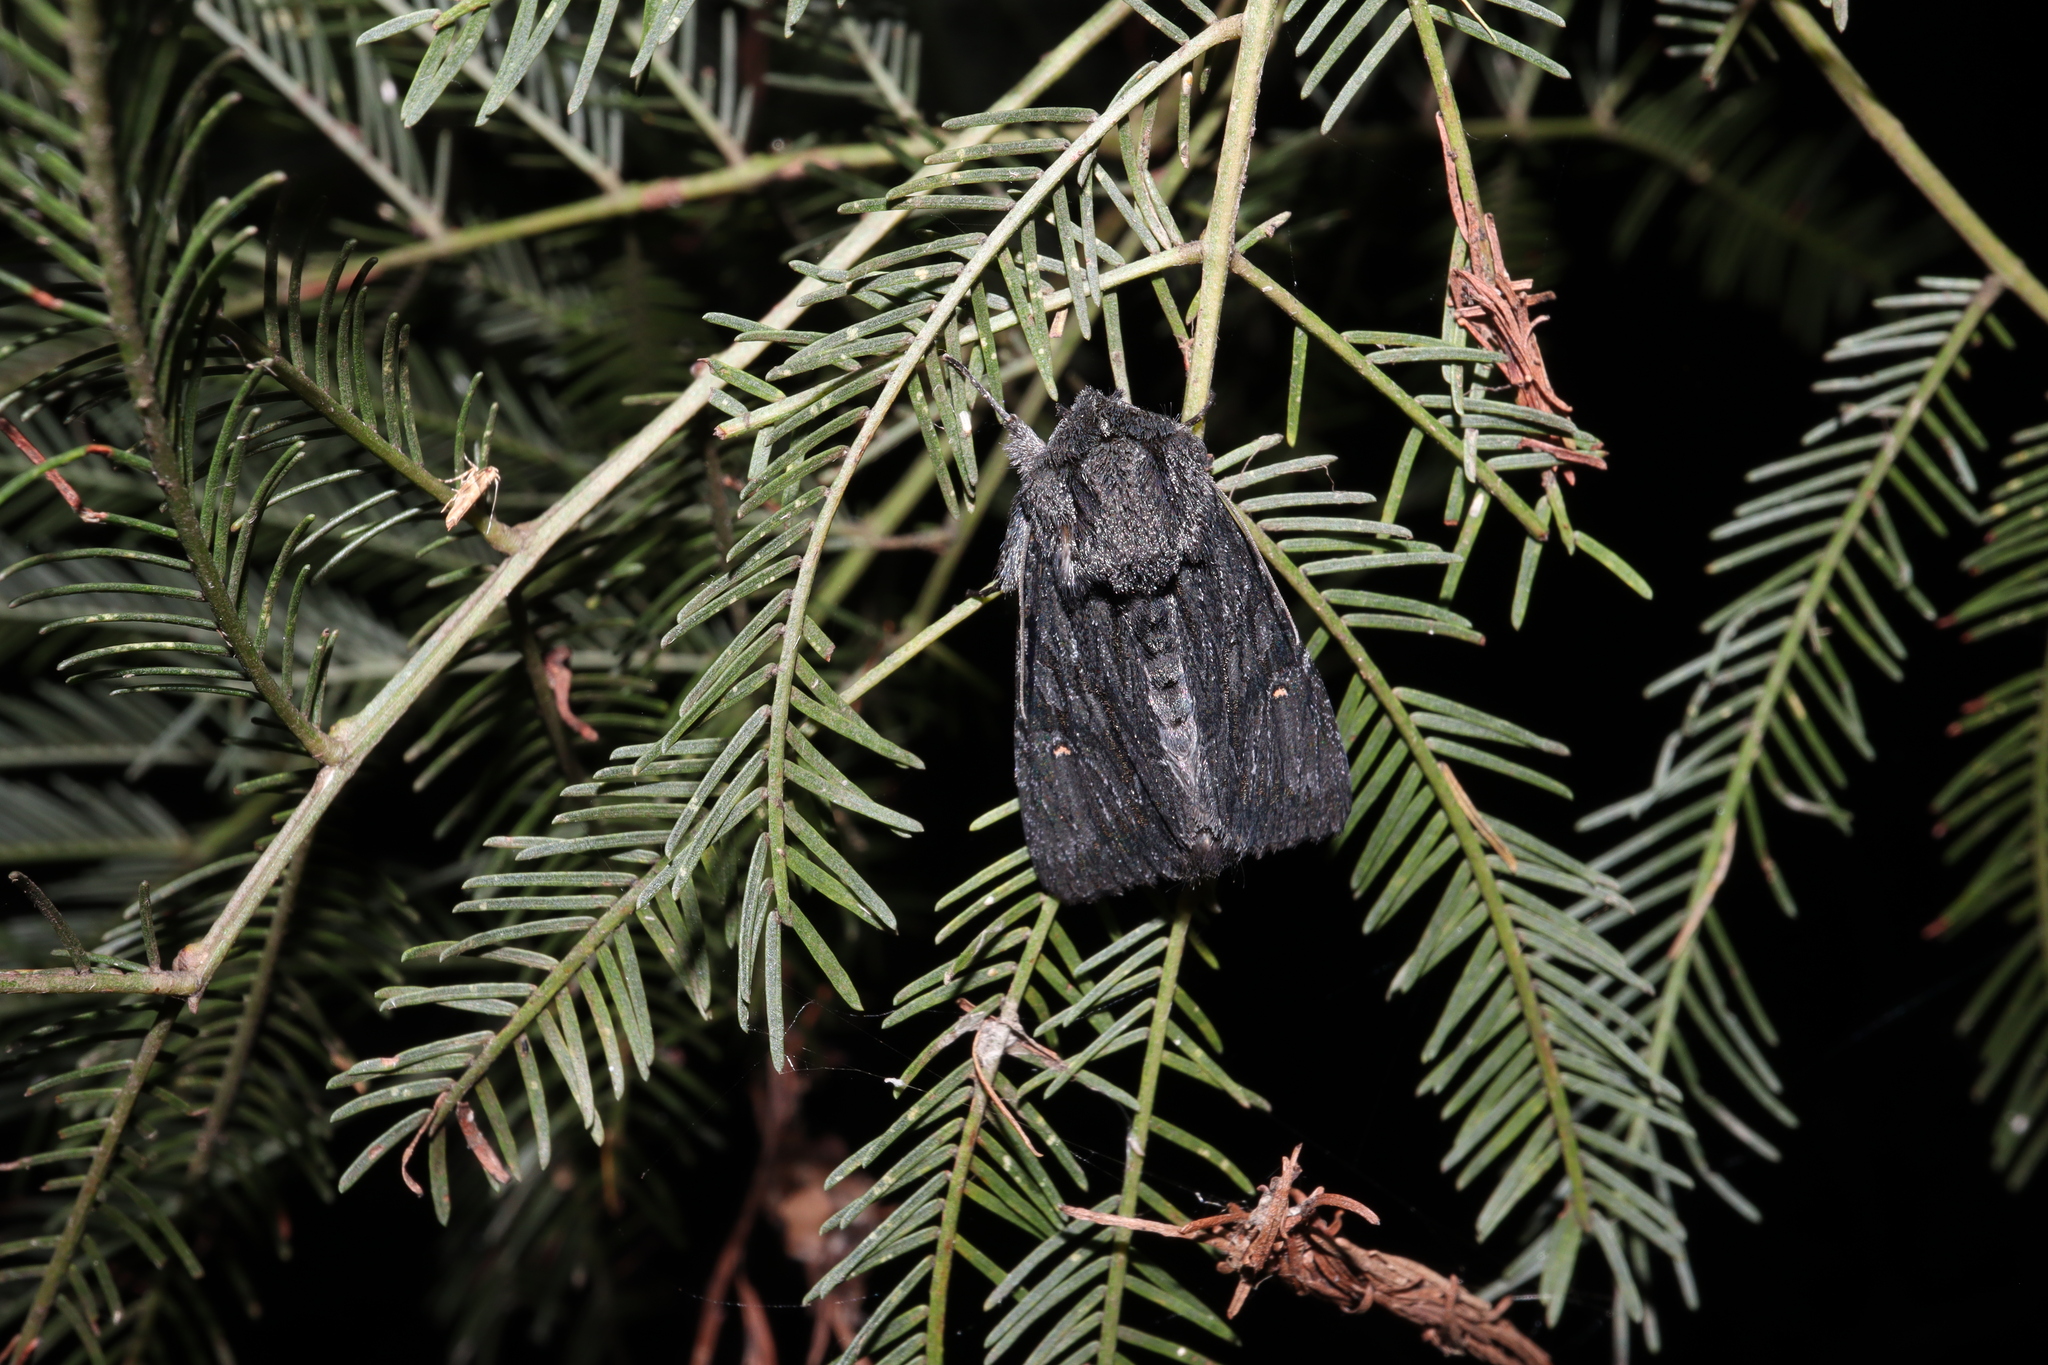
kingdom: Animalia
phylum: Arthropoda
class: Insecta
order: Lepidoptera
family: Noctuidae
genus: Neumichtis
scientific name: Neumichtis nigerrima
